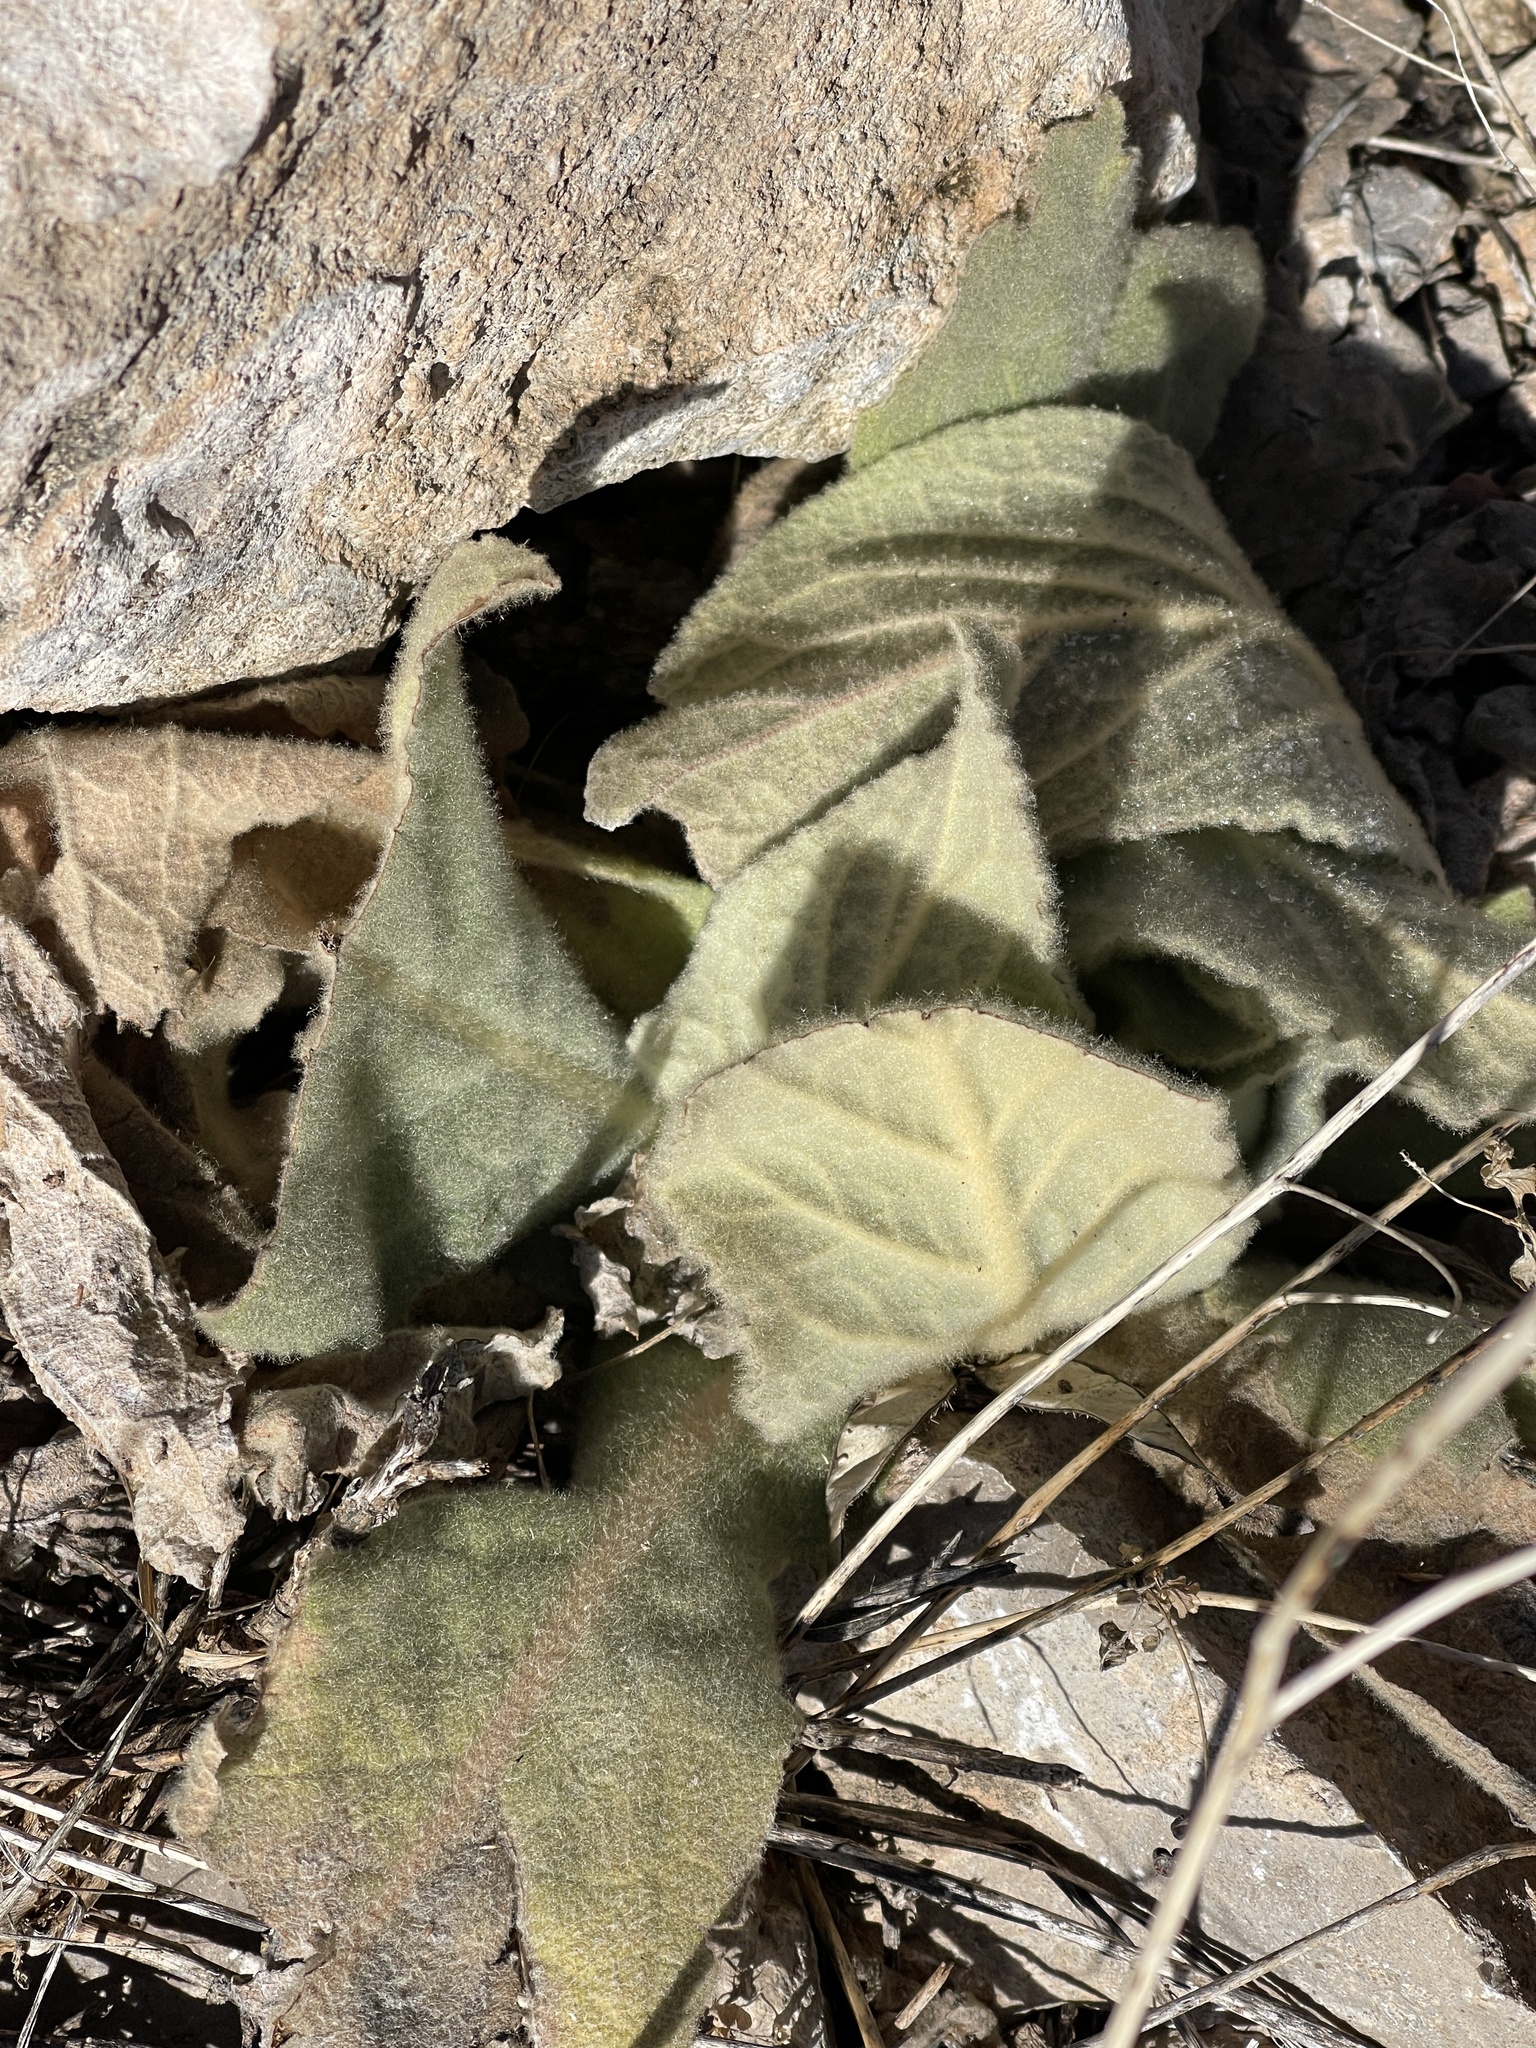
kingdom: Plantae
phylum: Tracheophyta
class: Magnoliopsida
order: Lamiales
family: Scrophulariaceae
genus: Verbascum
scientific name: Verbascum thapsus
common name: Common mullein
